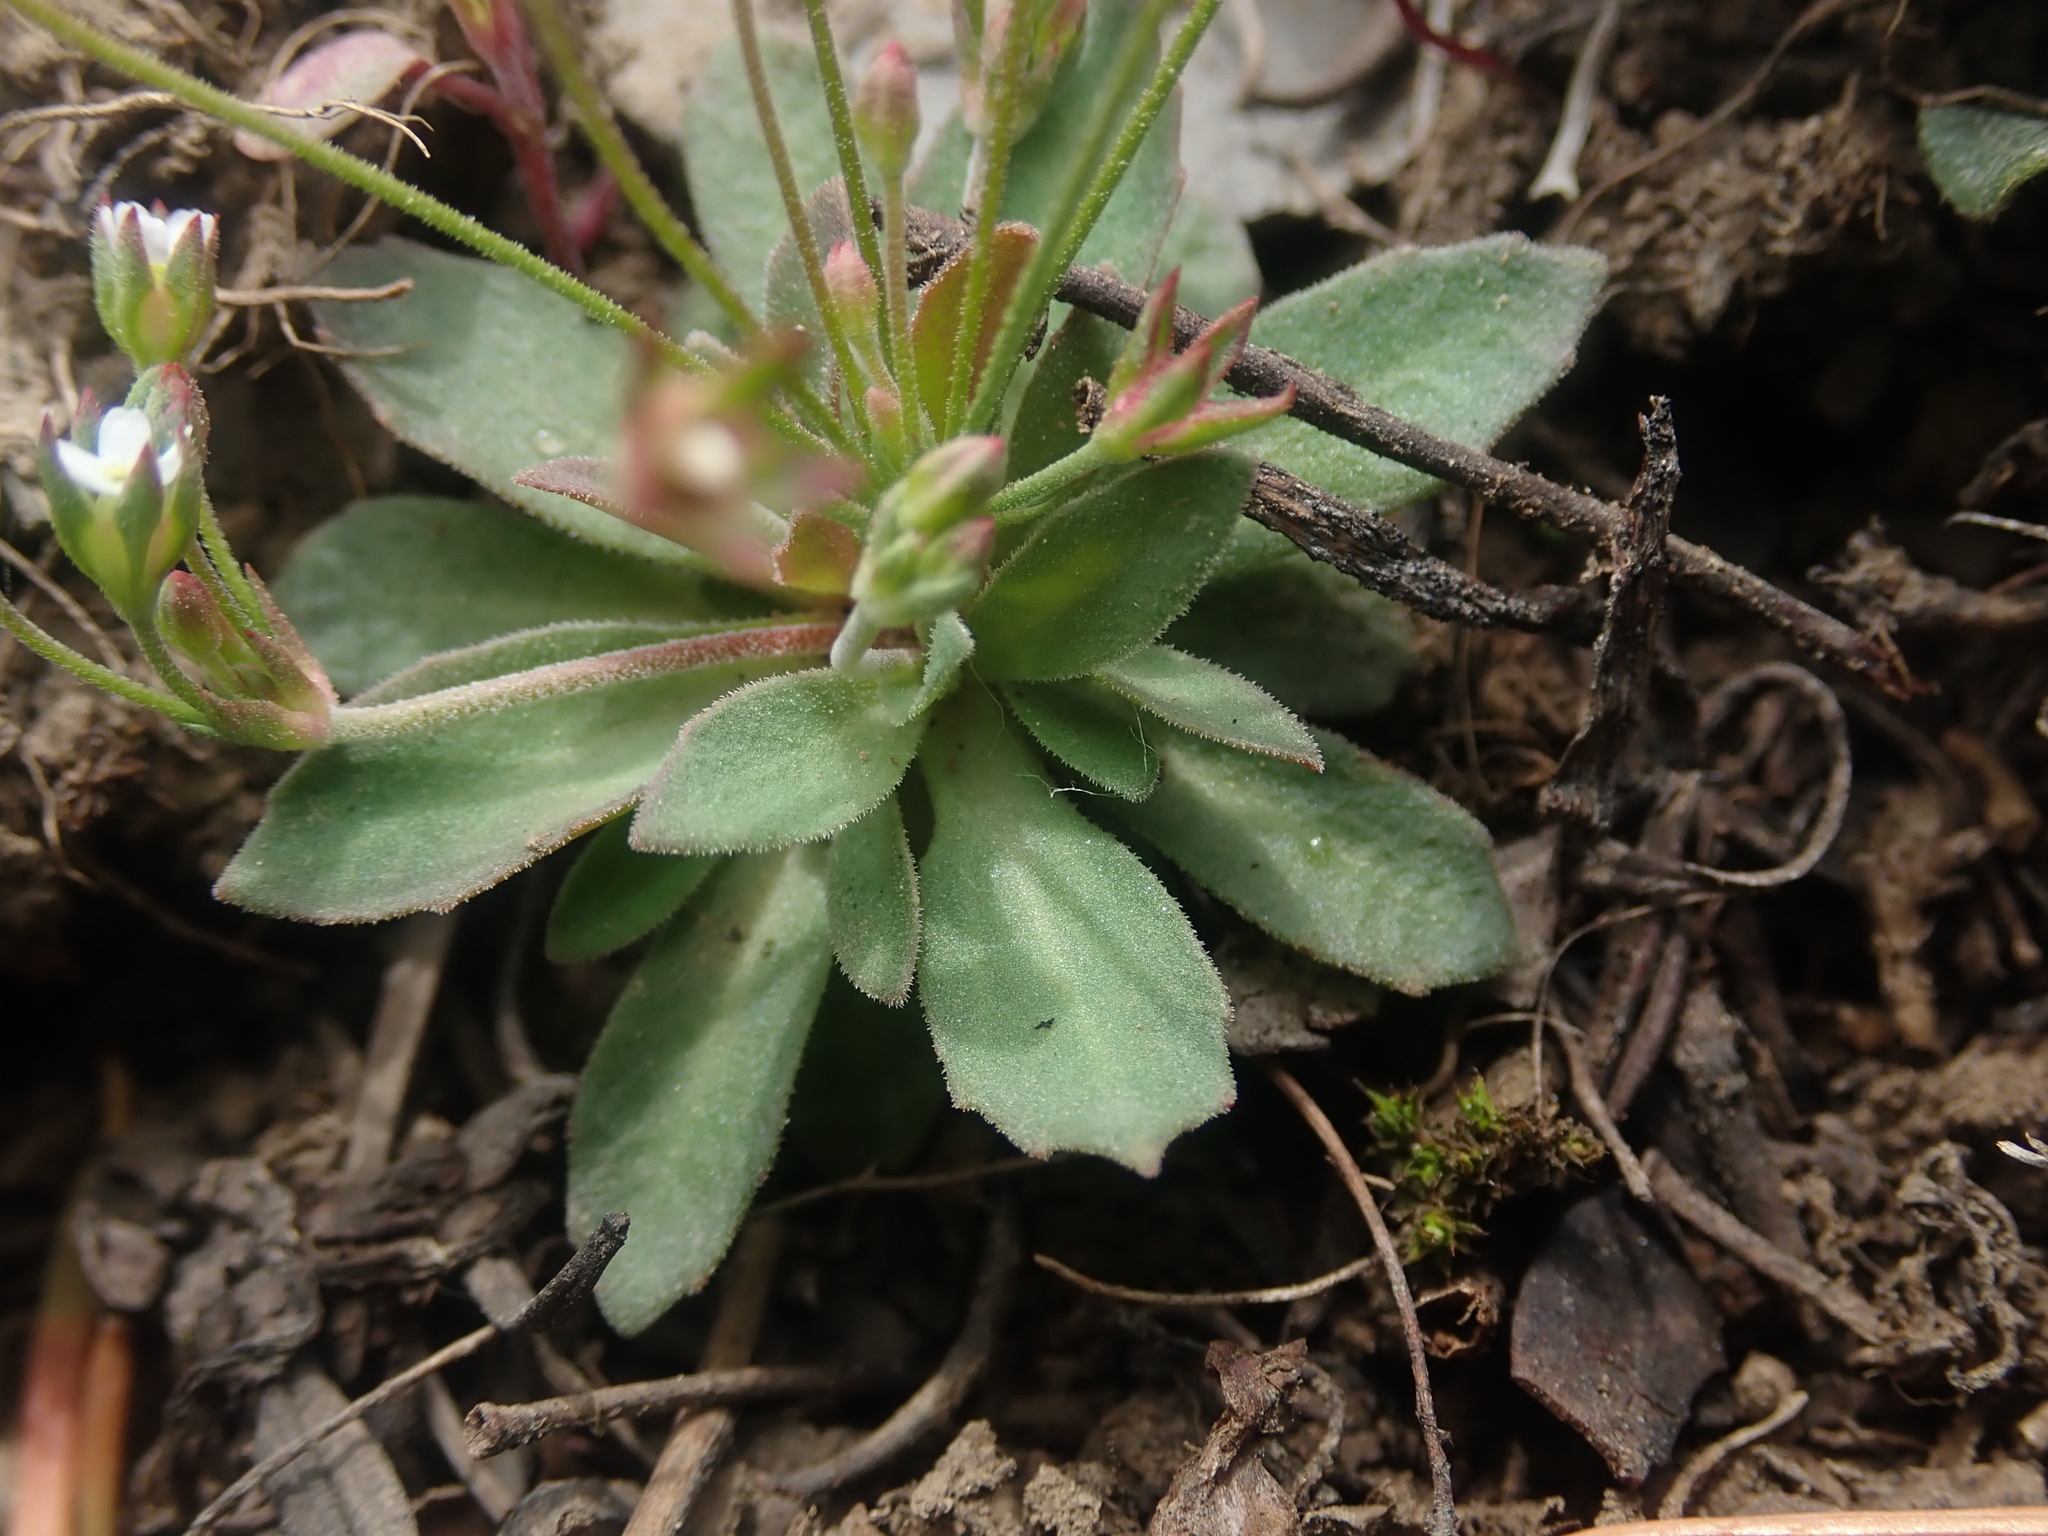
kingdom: Plantae
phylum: Tracheophyta
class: Magnoliopsida
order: Ericales
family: Primulaceae
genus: Androsace
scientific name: Androsace septentrionalis
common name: Hairy northern fairy-candelabra
